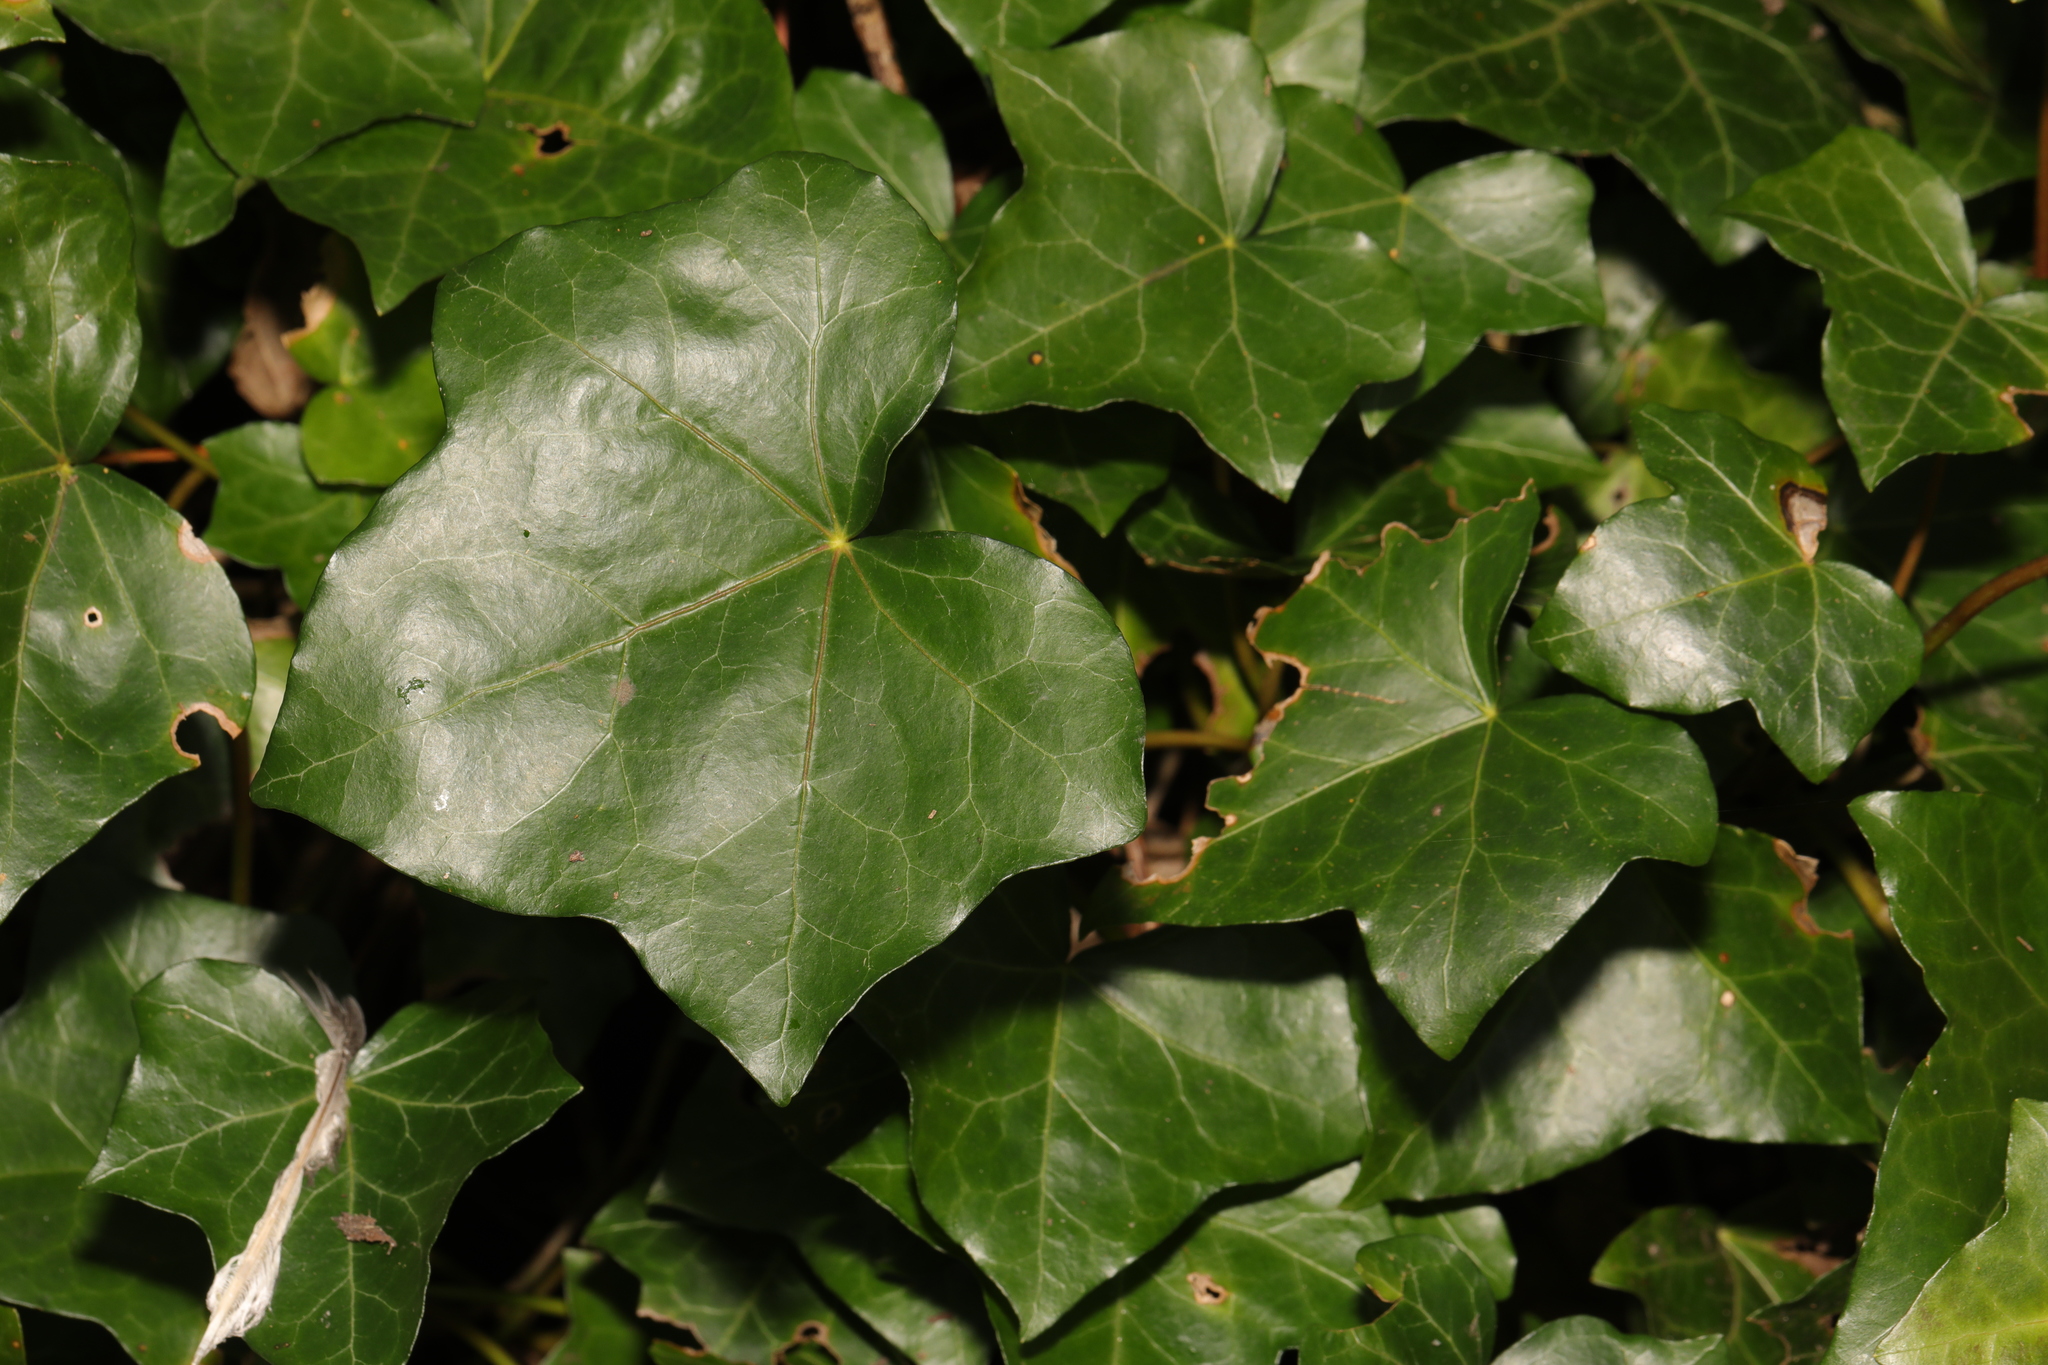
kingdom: Plantae
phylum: Tracheophyta
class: Magnoliopsida
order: Apiales
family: Araliaceae
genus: Hedera
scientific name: Hedera helix
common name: Ivy
